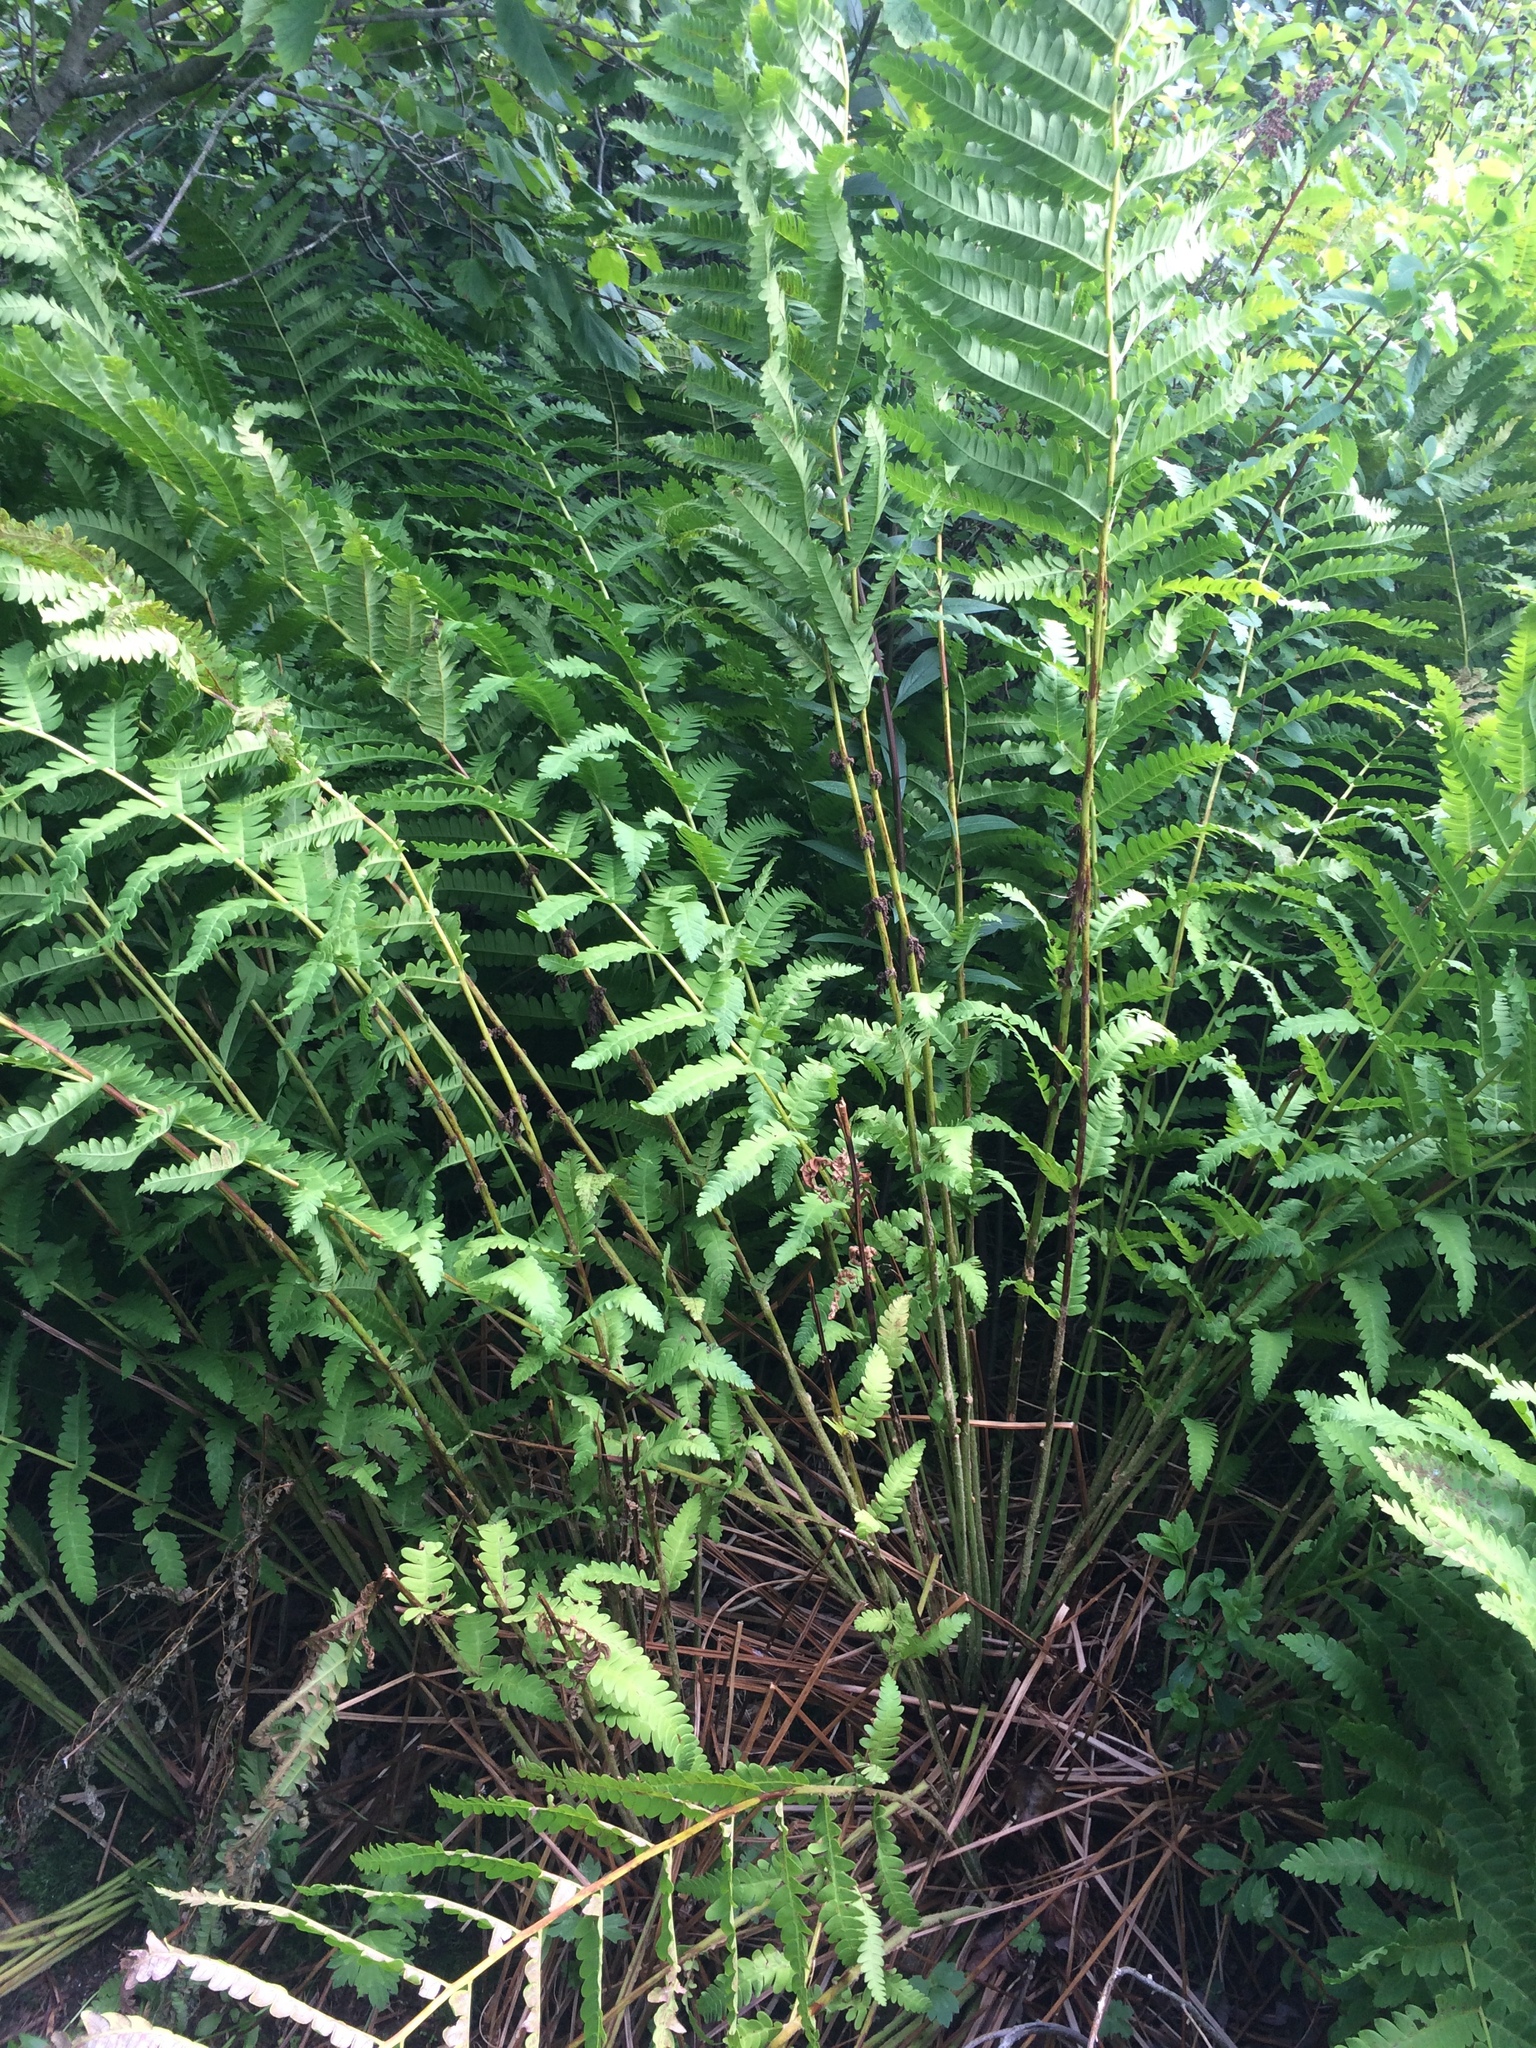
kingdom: Plantae
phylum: Tracheophyta
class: Polypodiopsida
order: Osmundales
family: Osmundaceae
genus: Claytosmunda
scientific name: Claytosmunda claytoniana
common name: Clayton's fern
